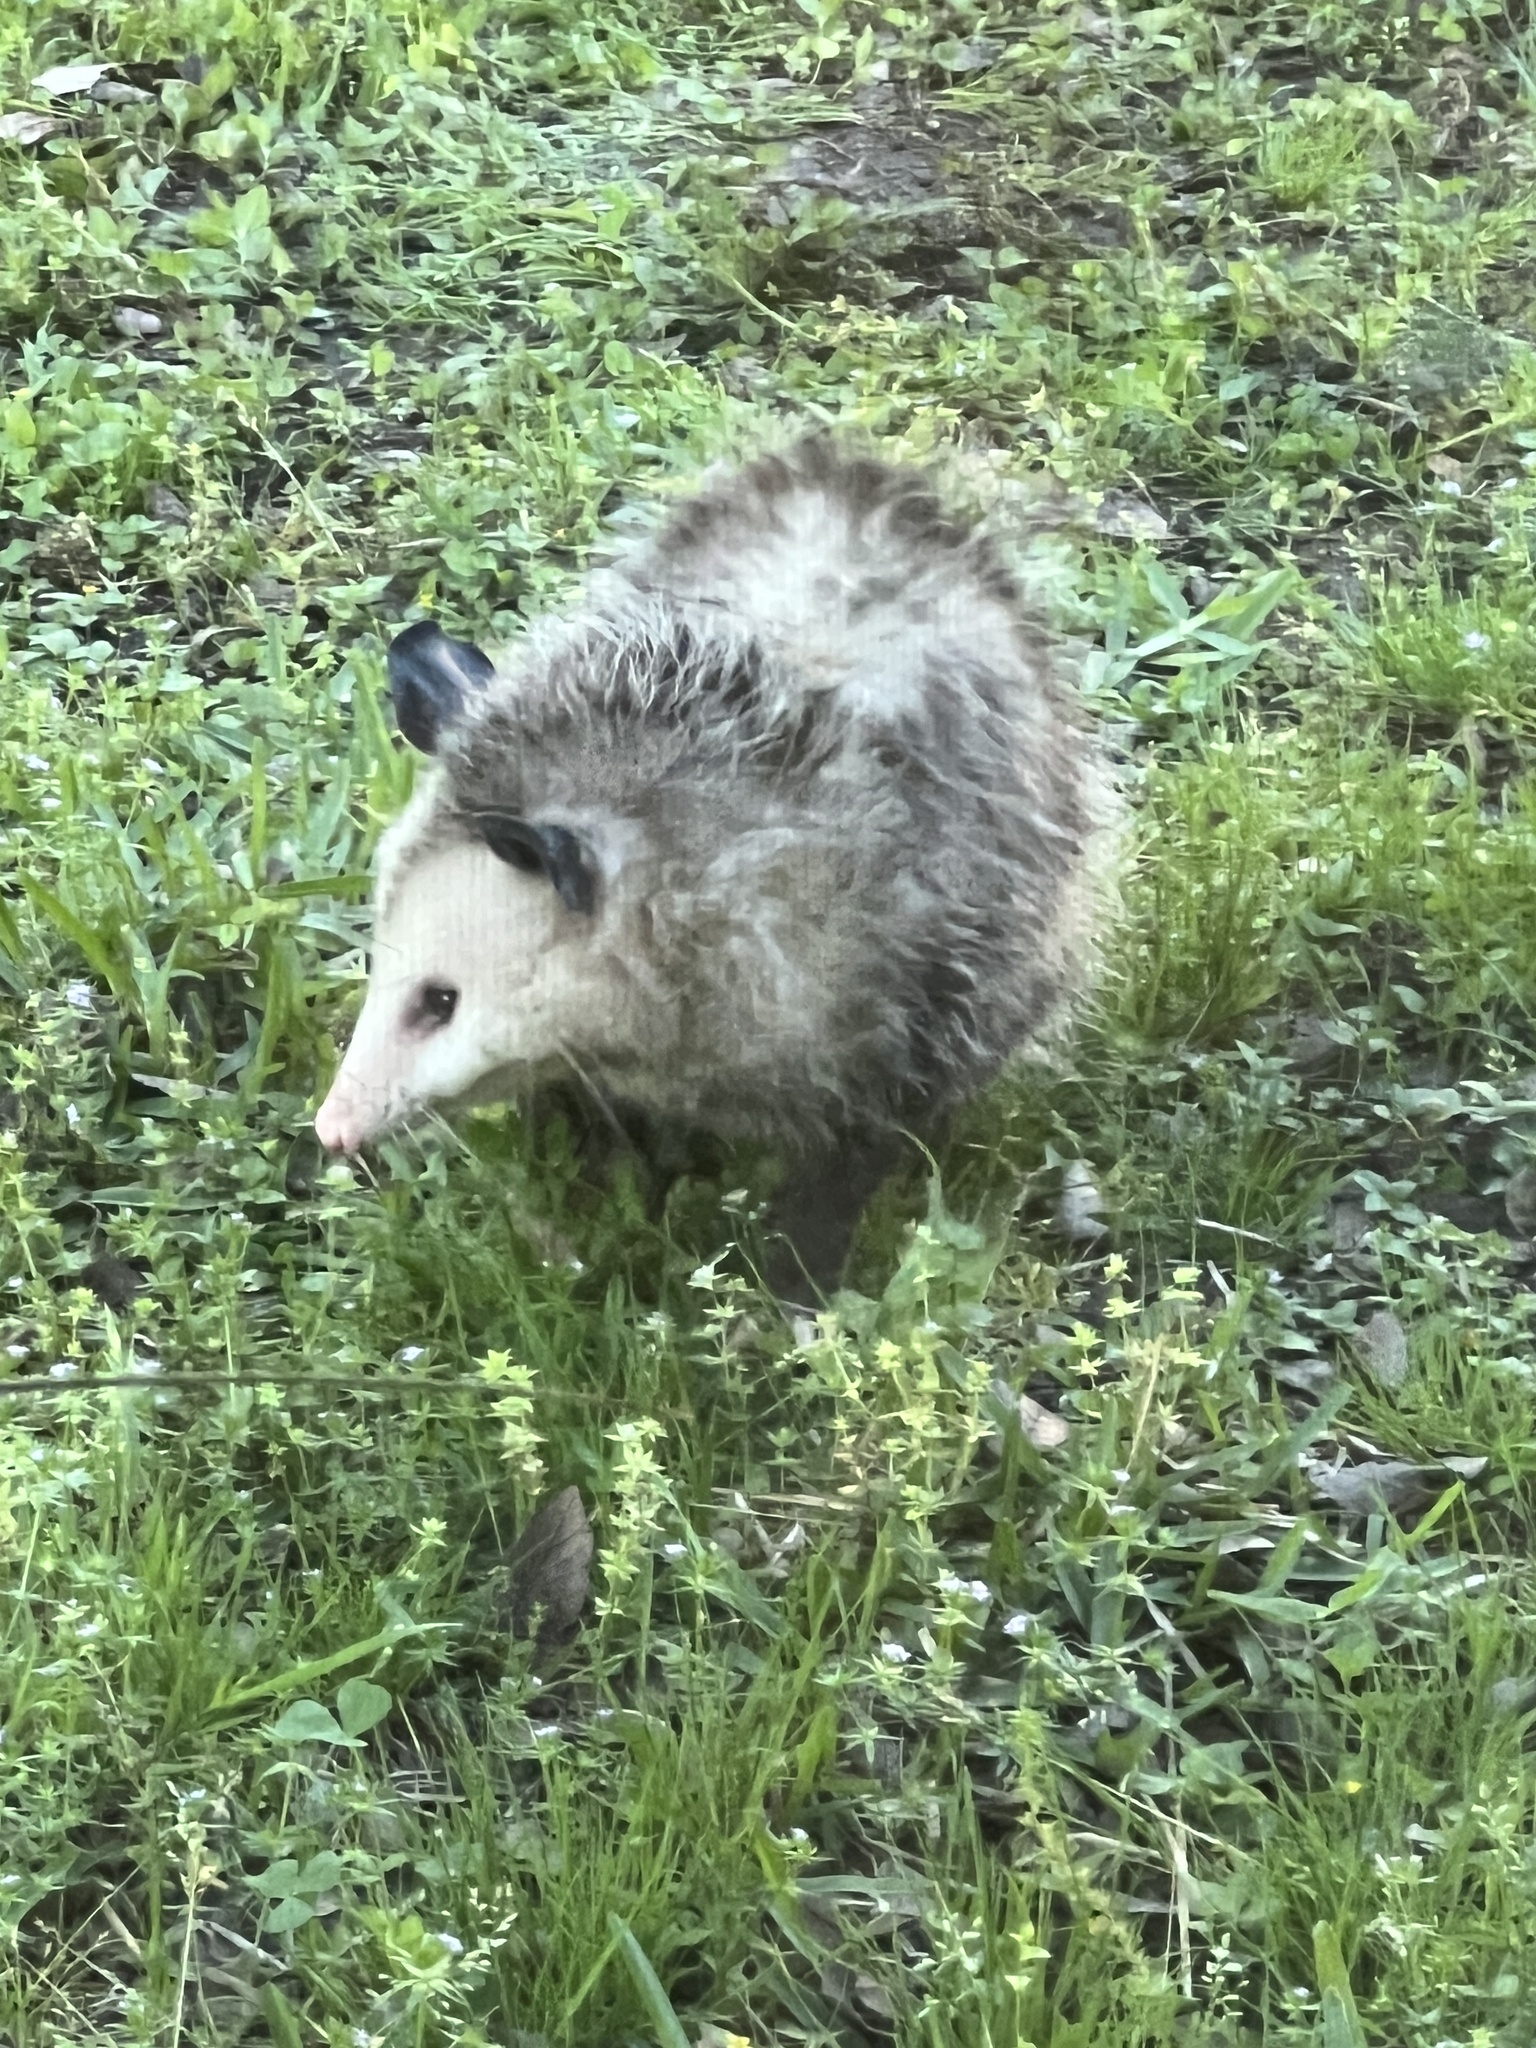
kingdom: Animalia
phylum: Chordata
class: Mammalia
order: Didelphimorphia
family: Didelphidae
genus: Didelphis
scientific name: Didelphis virginiana
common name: Virginia opossum
